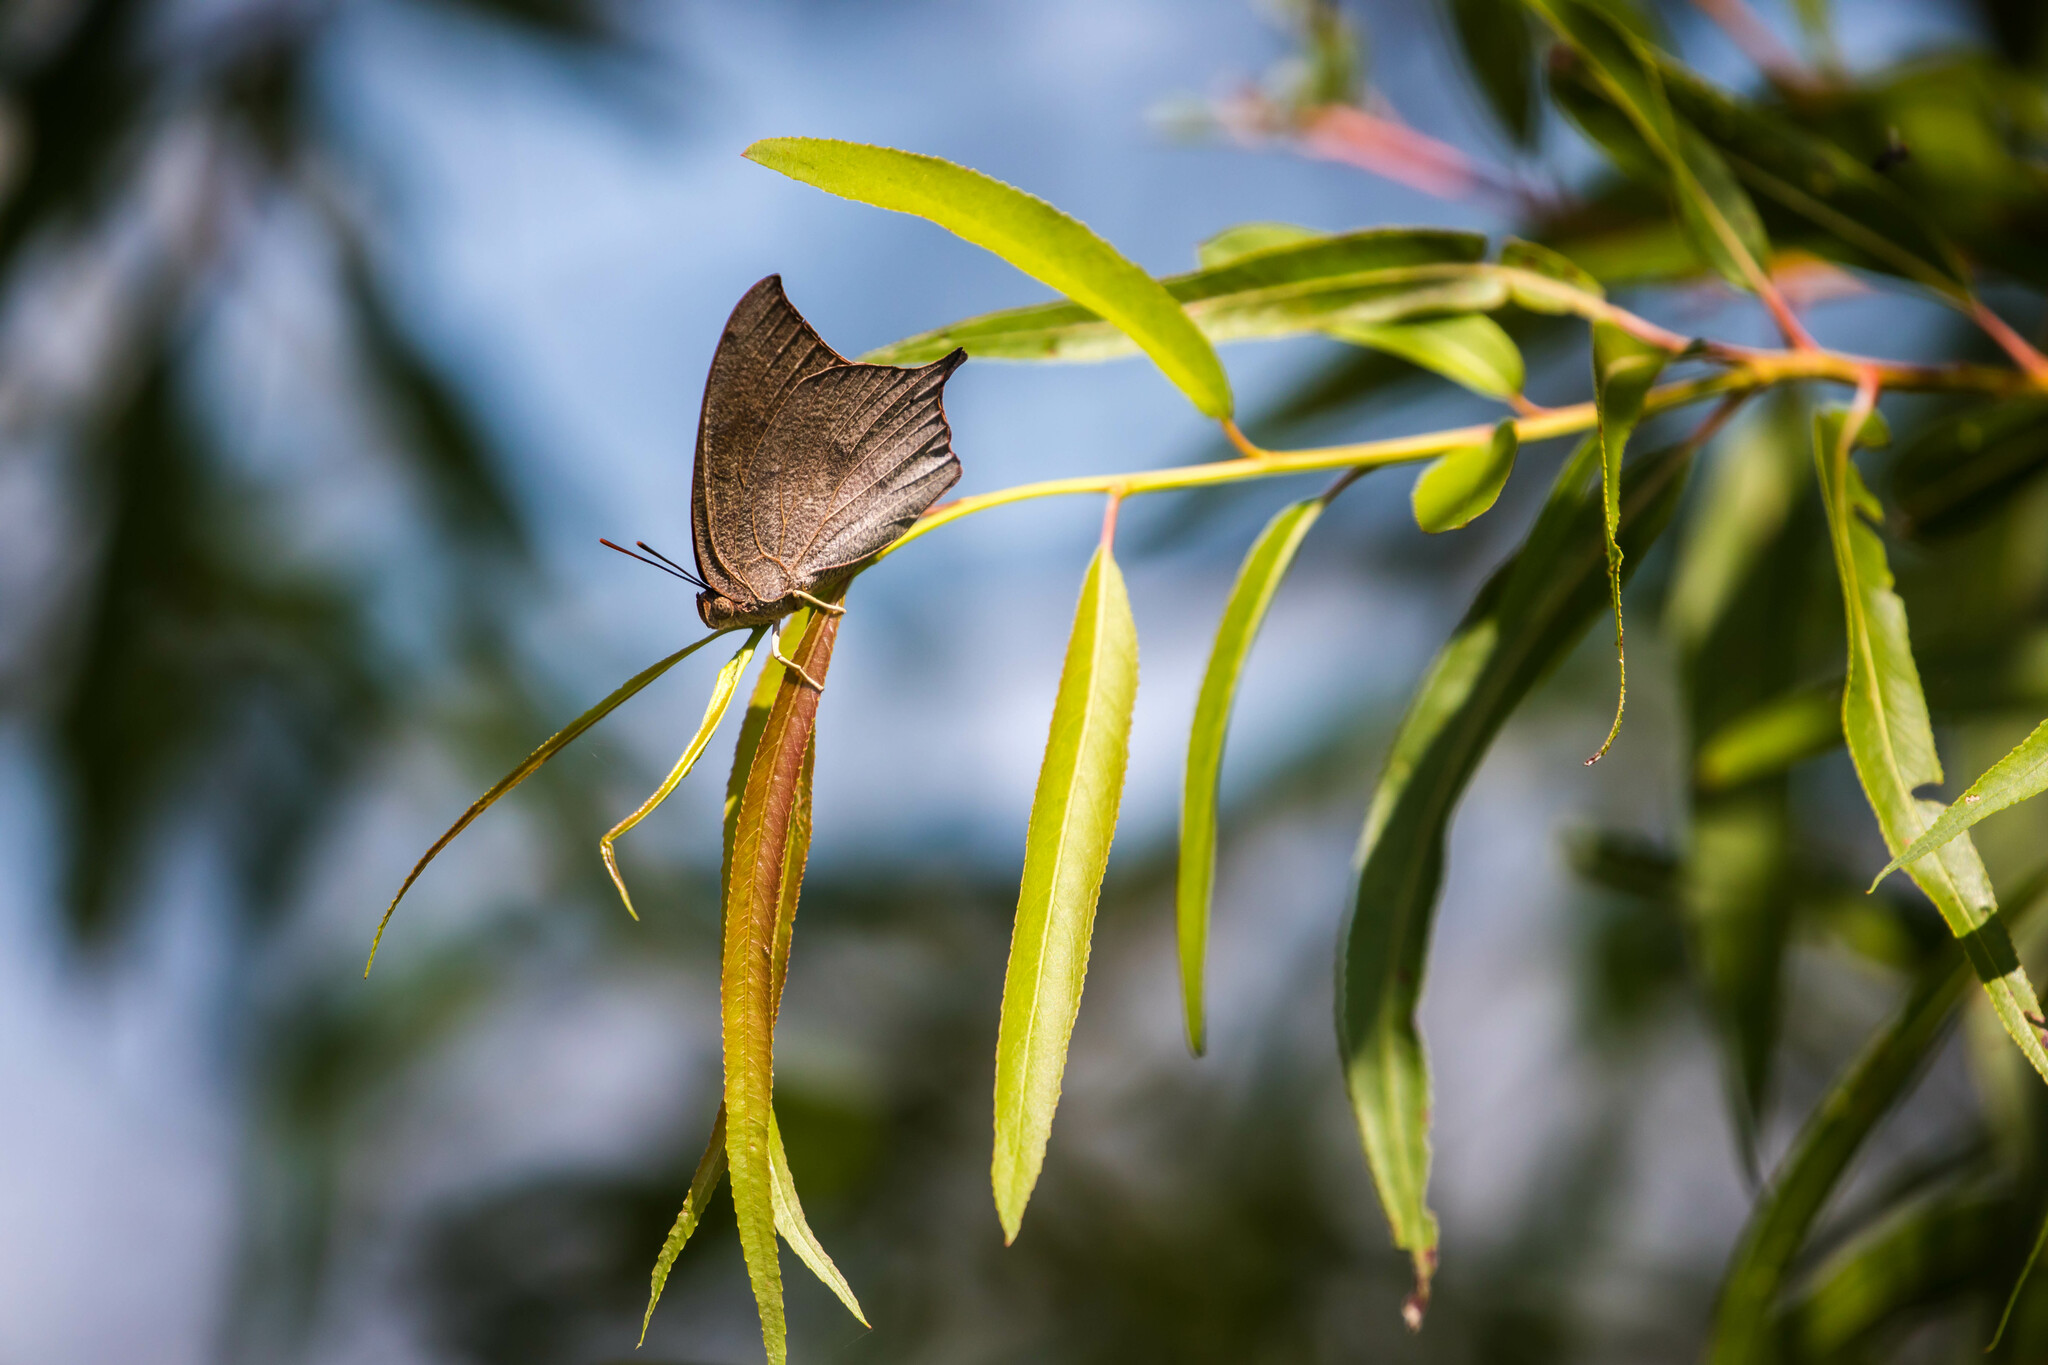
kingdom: Animalia
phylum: Arthropoda
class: Insecta
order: Lepidoptera
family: Nymphalidae
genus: Anaea
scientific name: Anaea andria
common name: Goatweed leafwing
